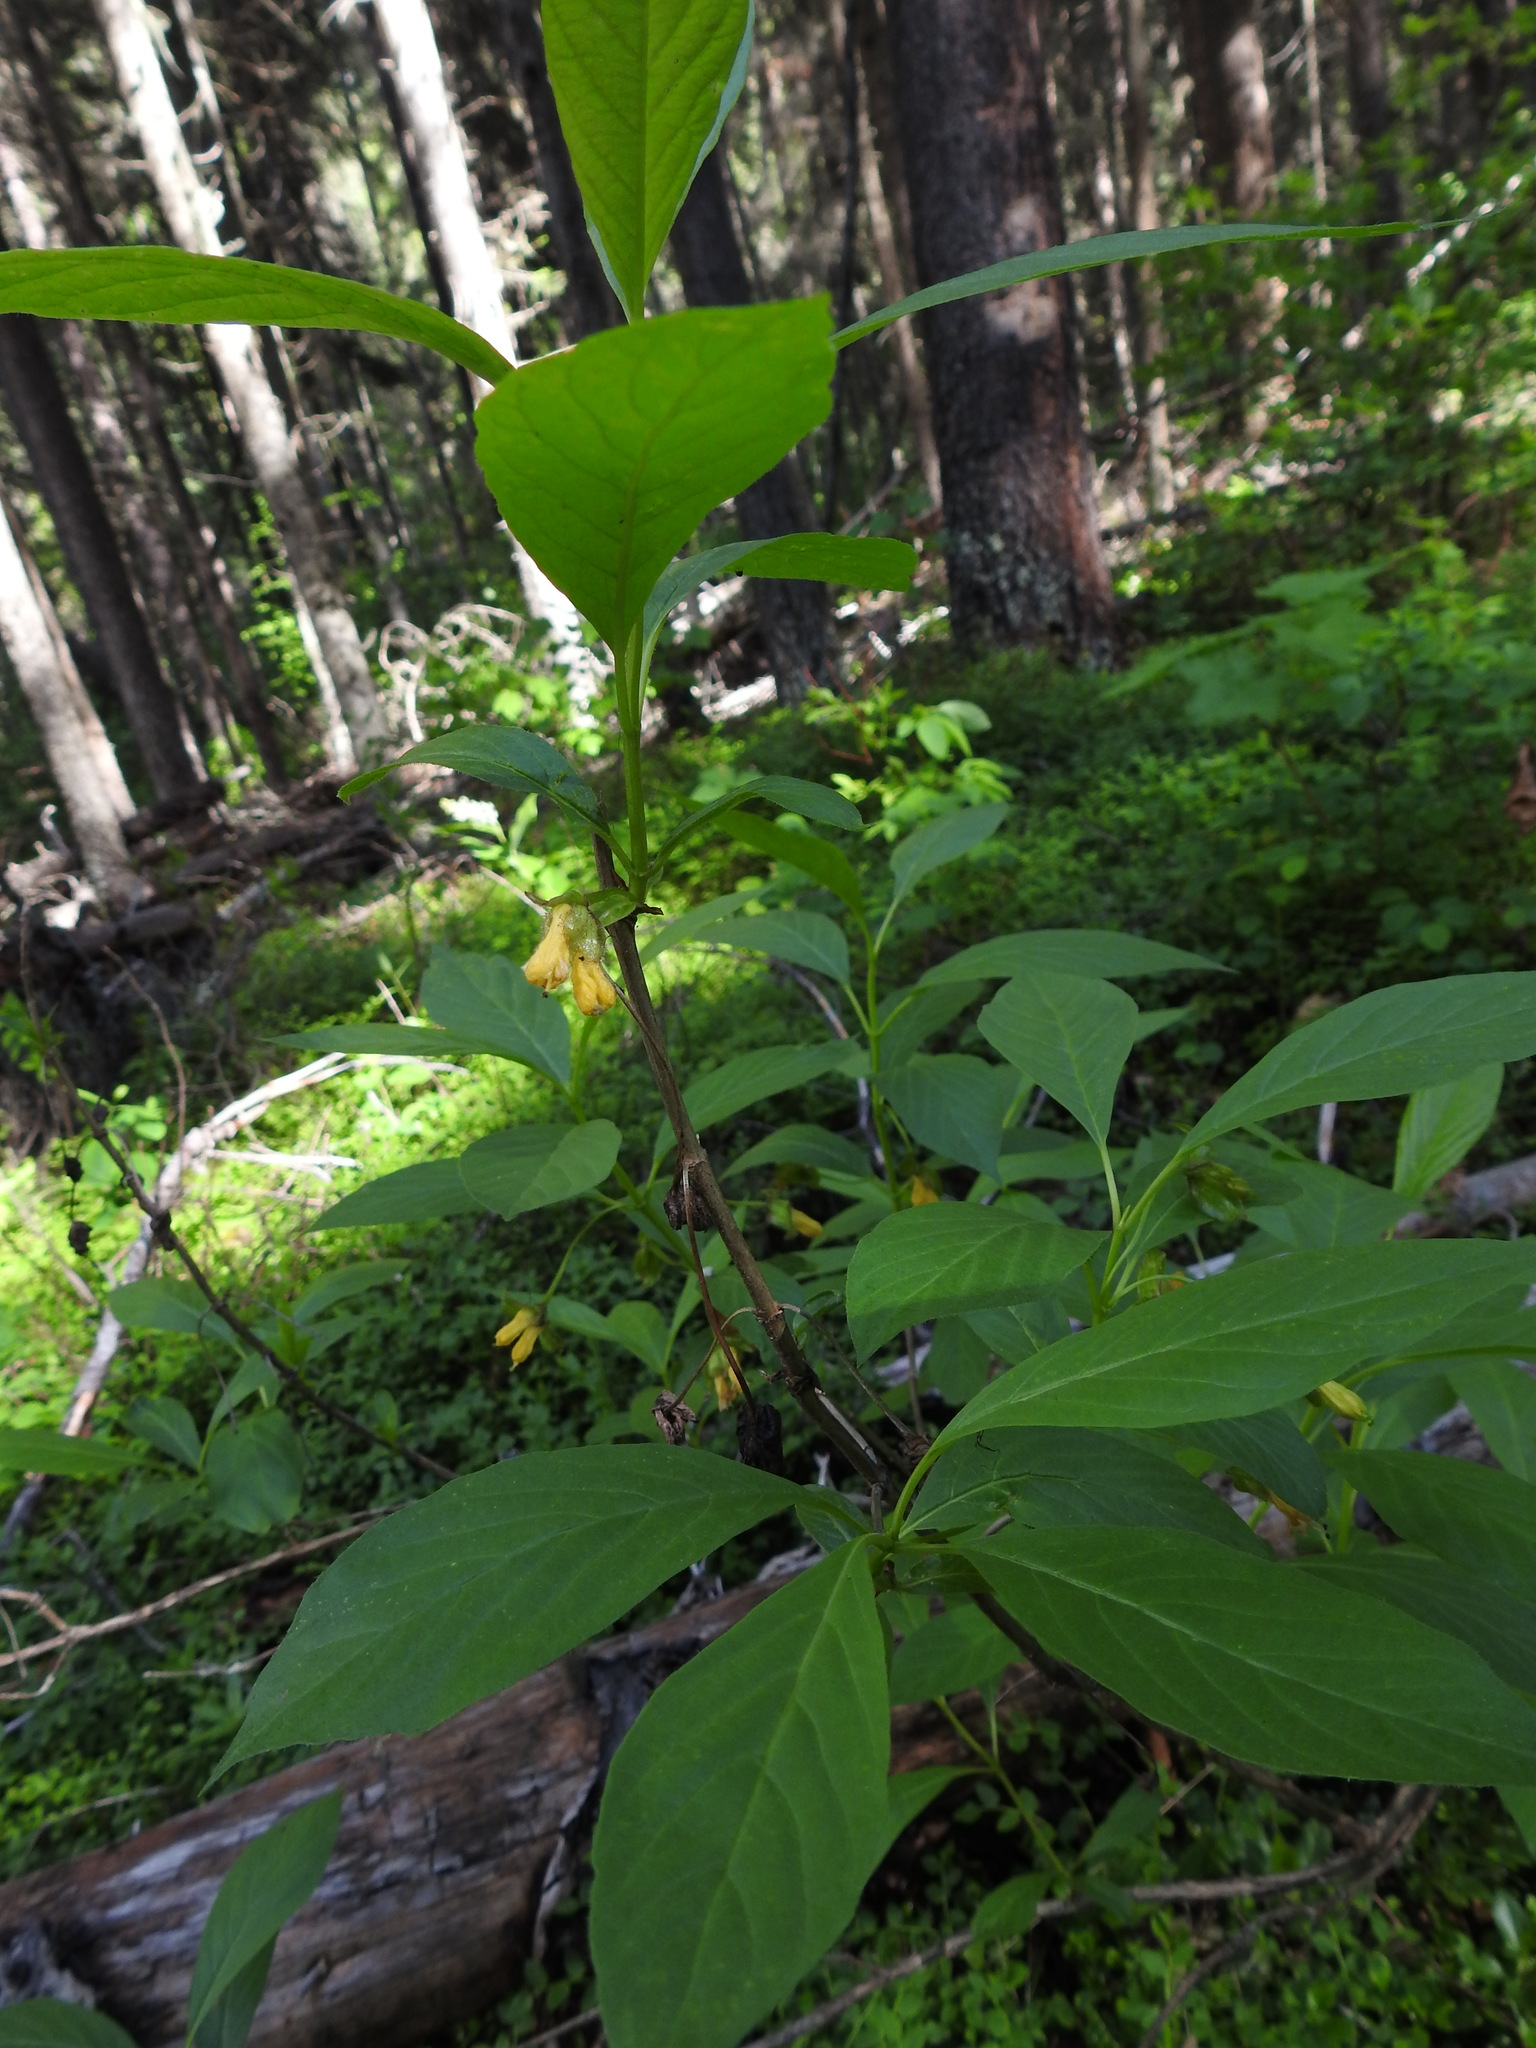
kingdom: Plantae
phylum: Tracheophyta
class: Magnoliopsida
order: Dipsacales
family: Caprifoliaceae
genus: Lonicera
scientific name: Lonicera involucrata
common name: Californian honeysuckle
